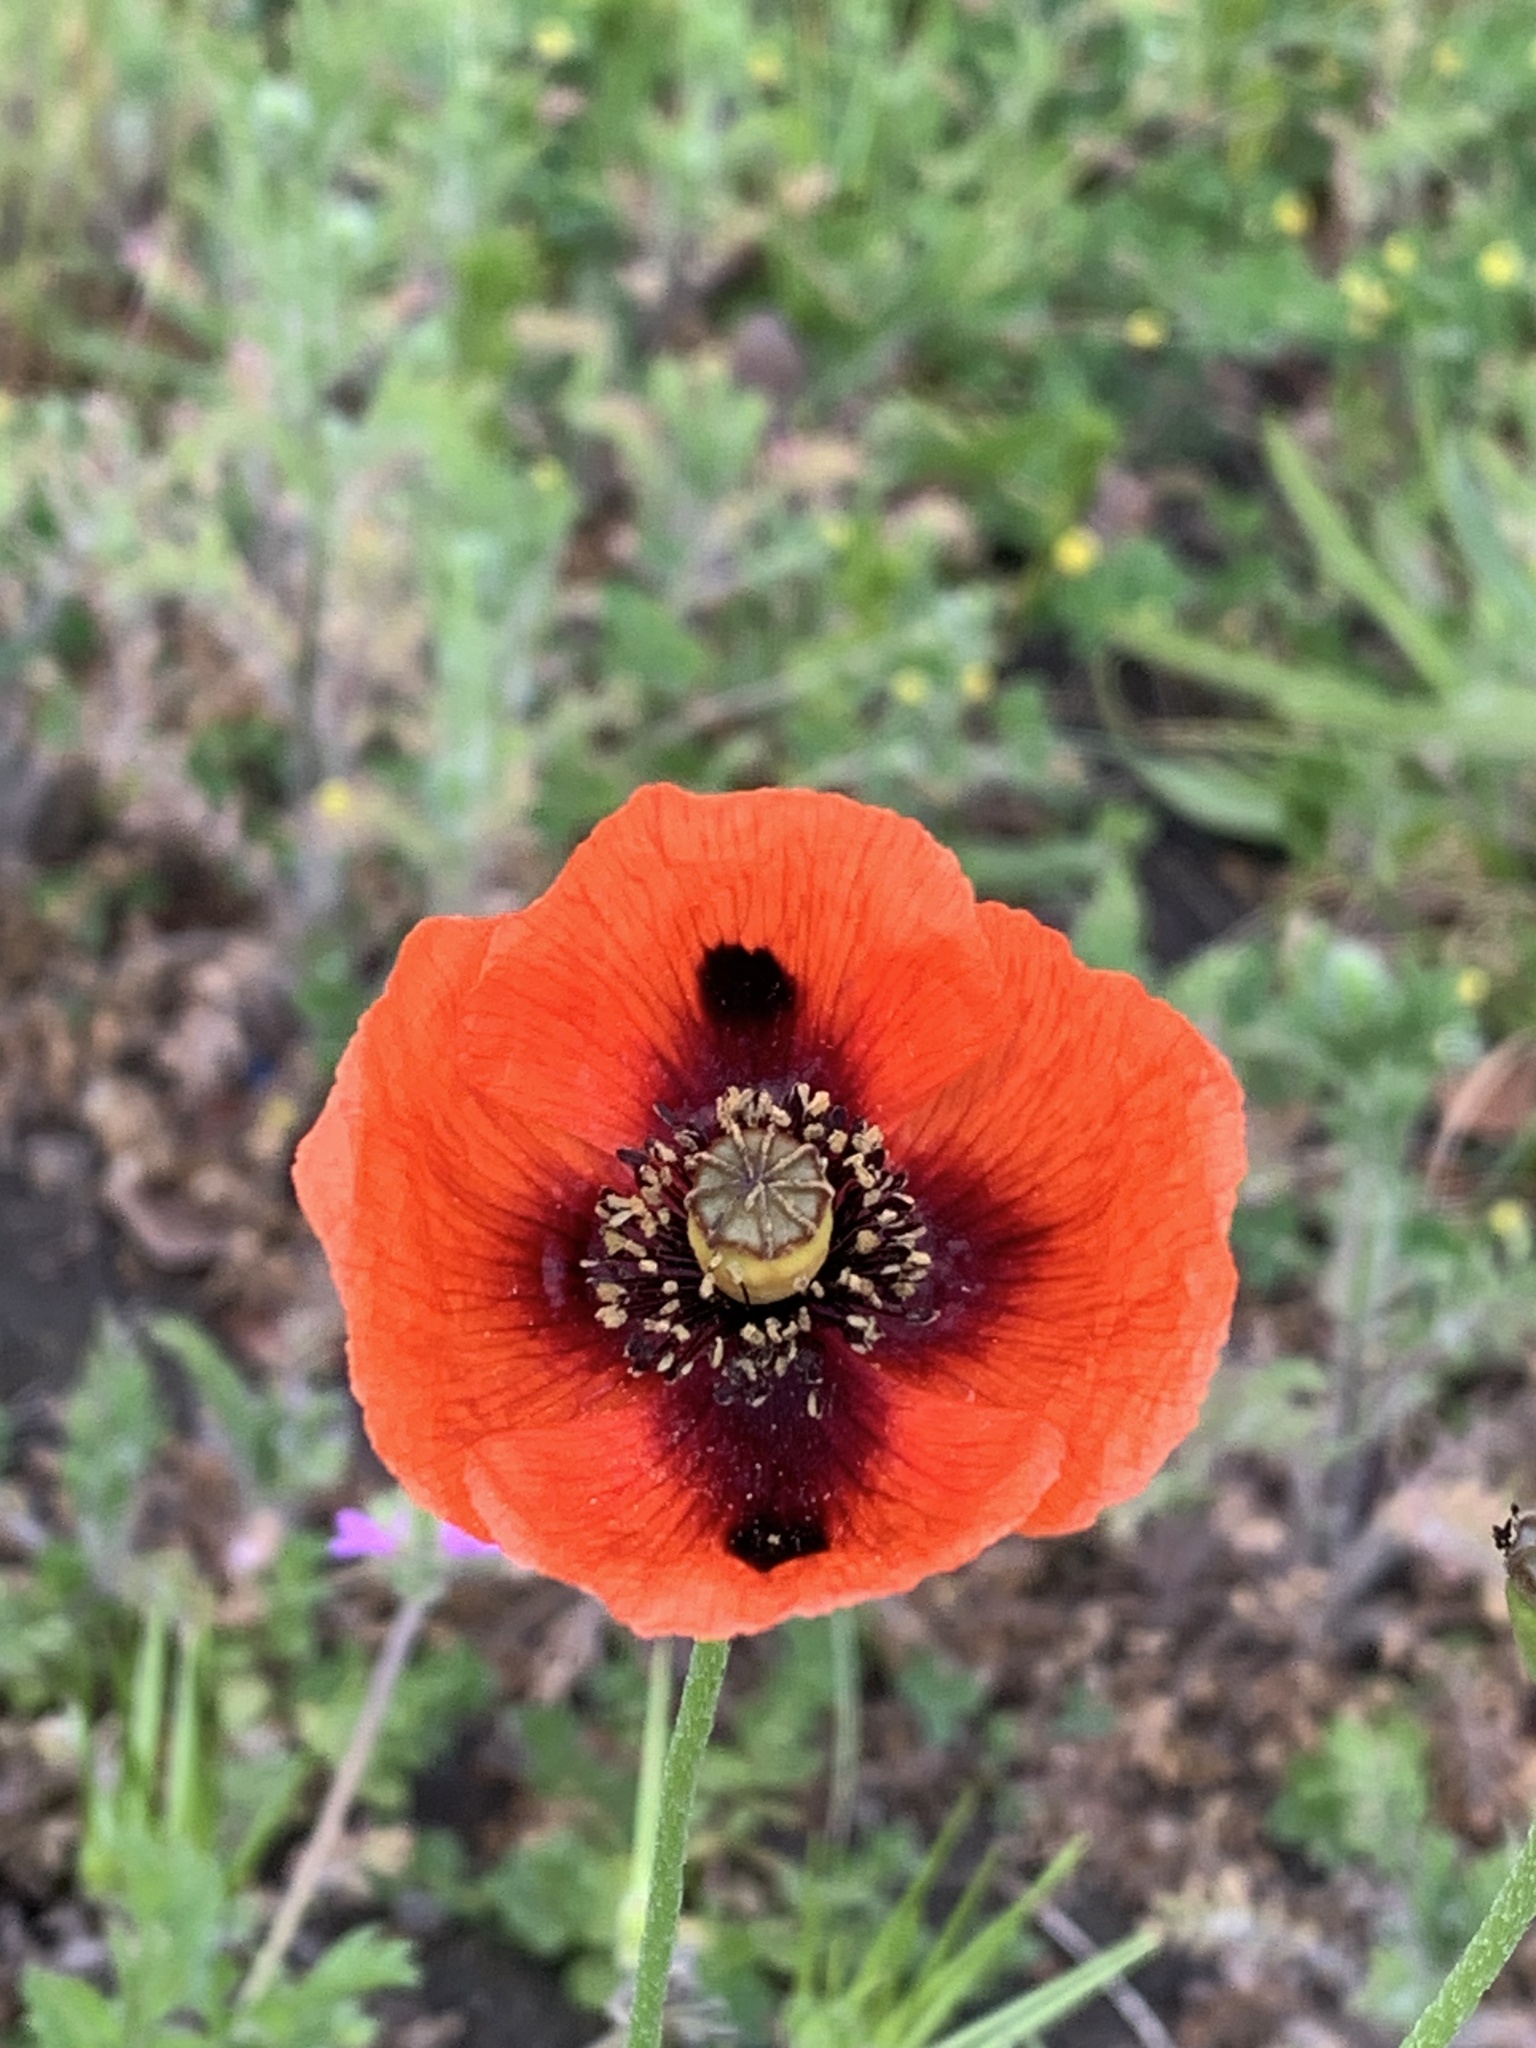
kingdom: Plantae
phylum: Tracheophyta
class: Magnoliopsida
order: Ranunculales
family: Papaveraceae
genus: Papaver
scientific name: Papaver rhoeas
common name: Corn poppy
